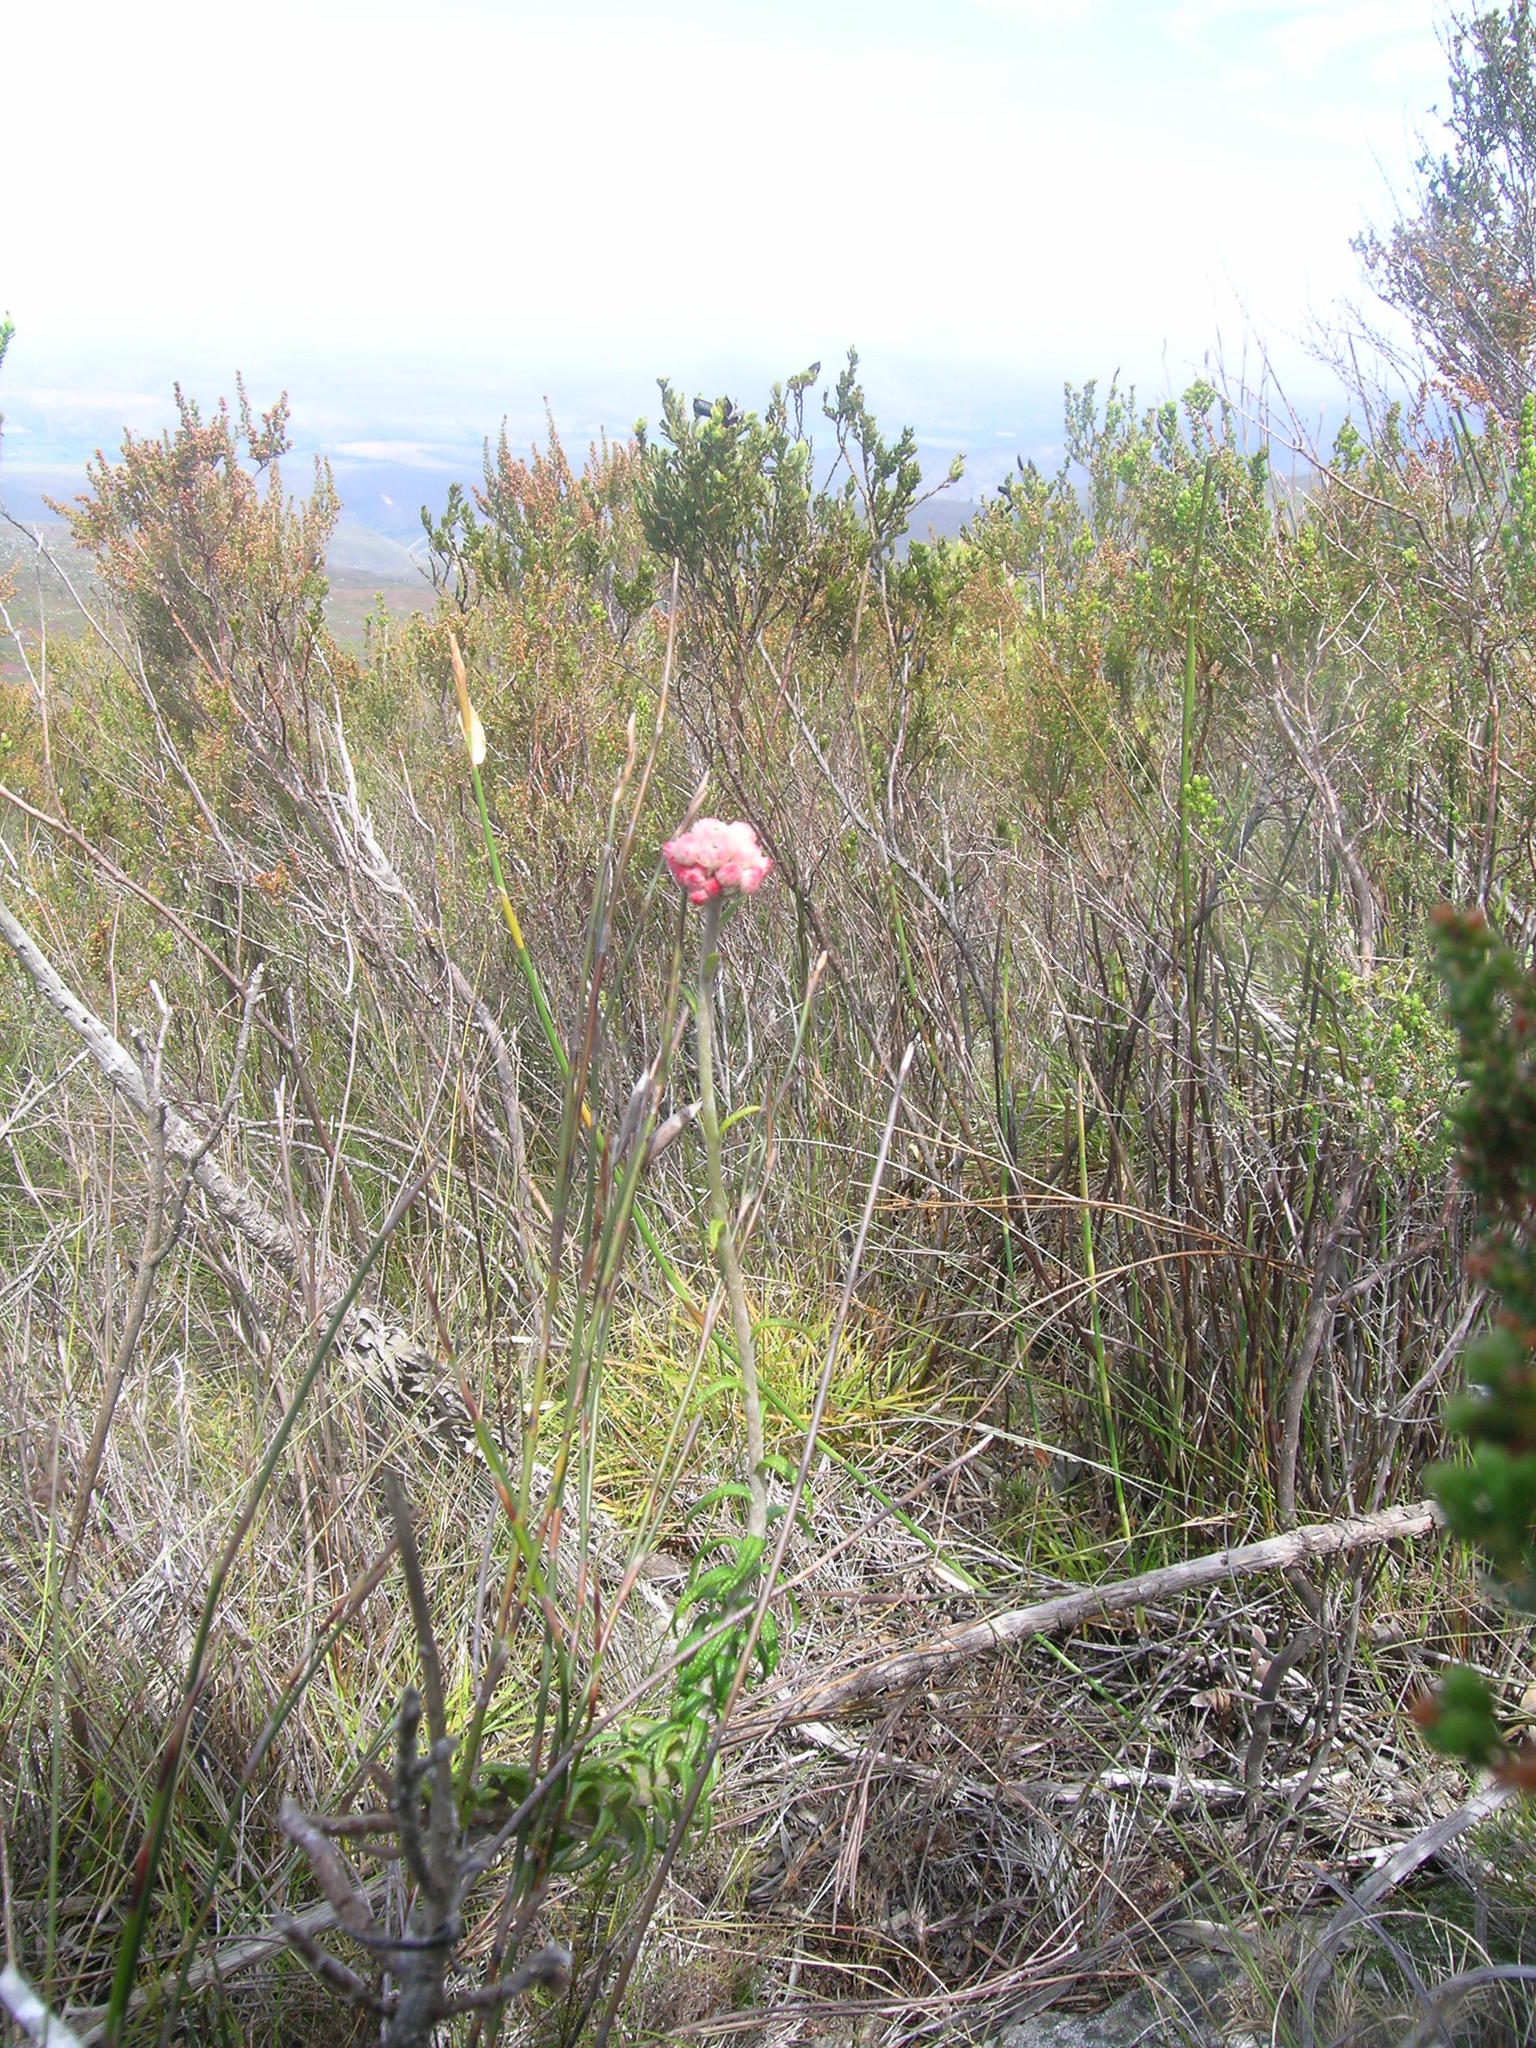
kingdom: Plantae
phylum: Tracheophyta
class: Magnoliopsida
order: Asterales
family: Asteraceae
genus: Helichrysum
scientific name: Helichrysum felinum
